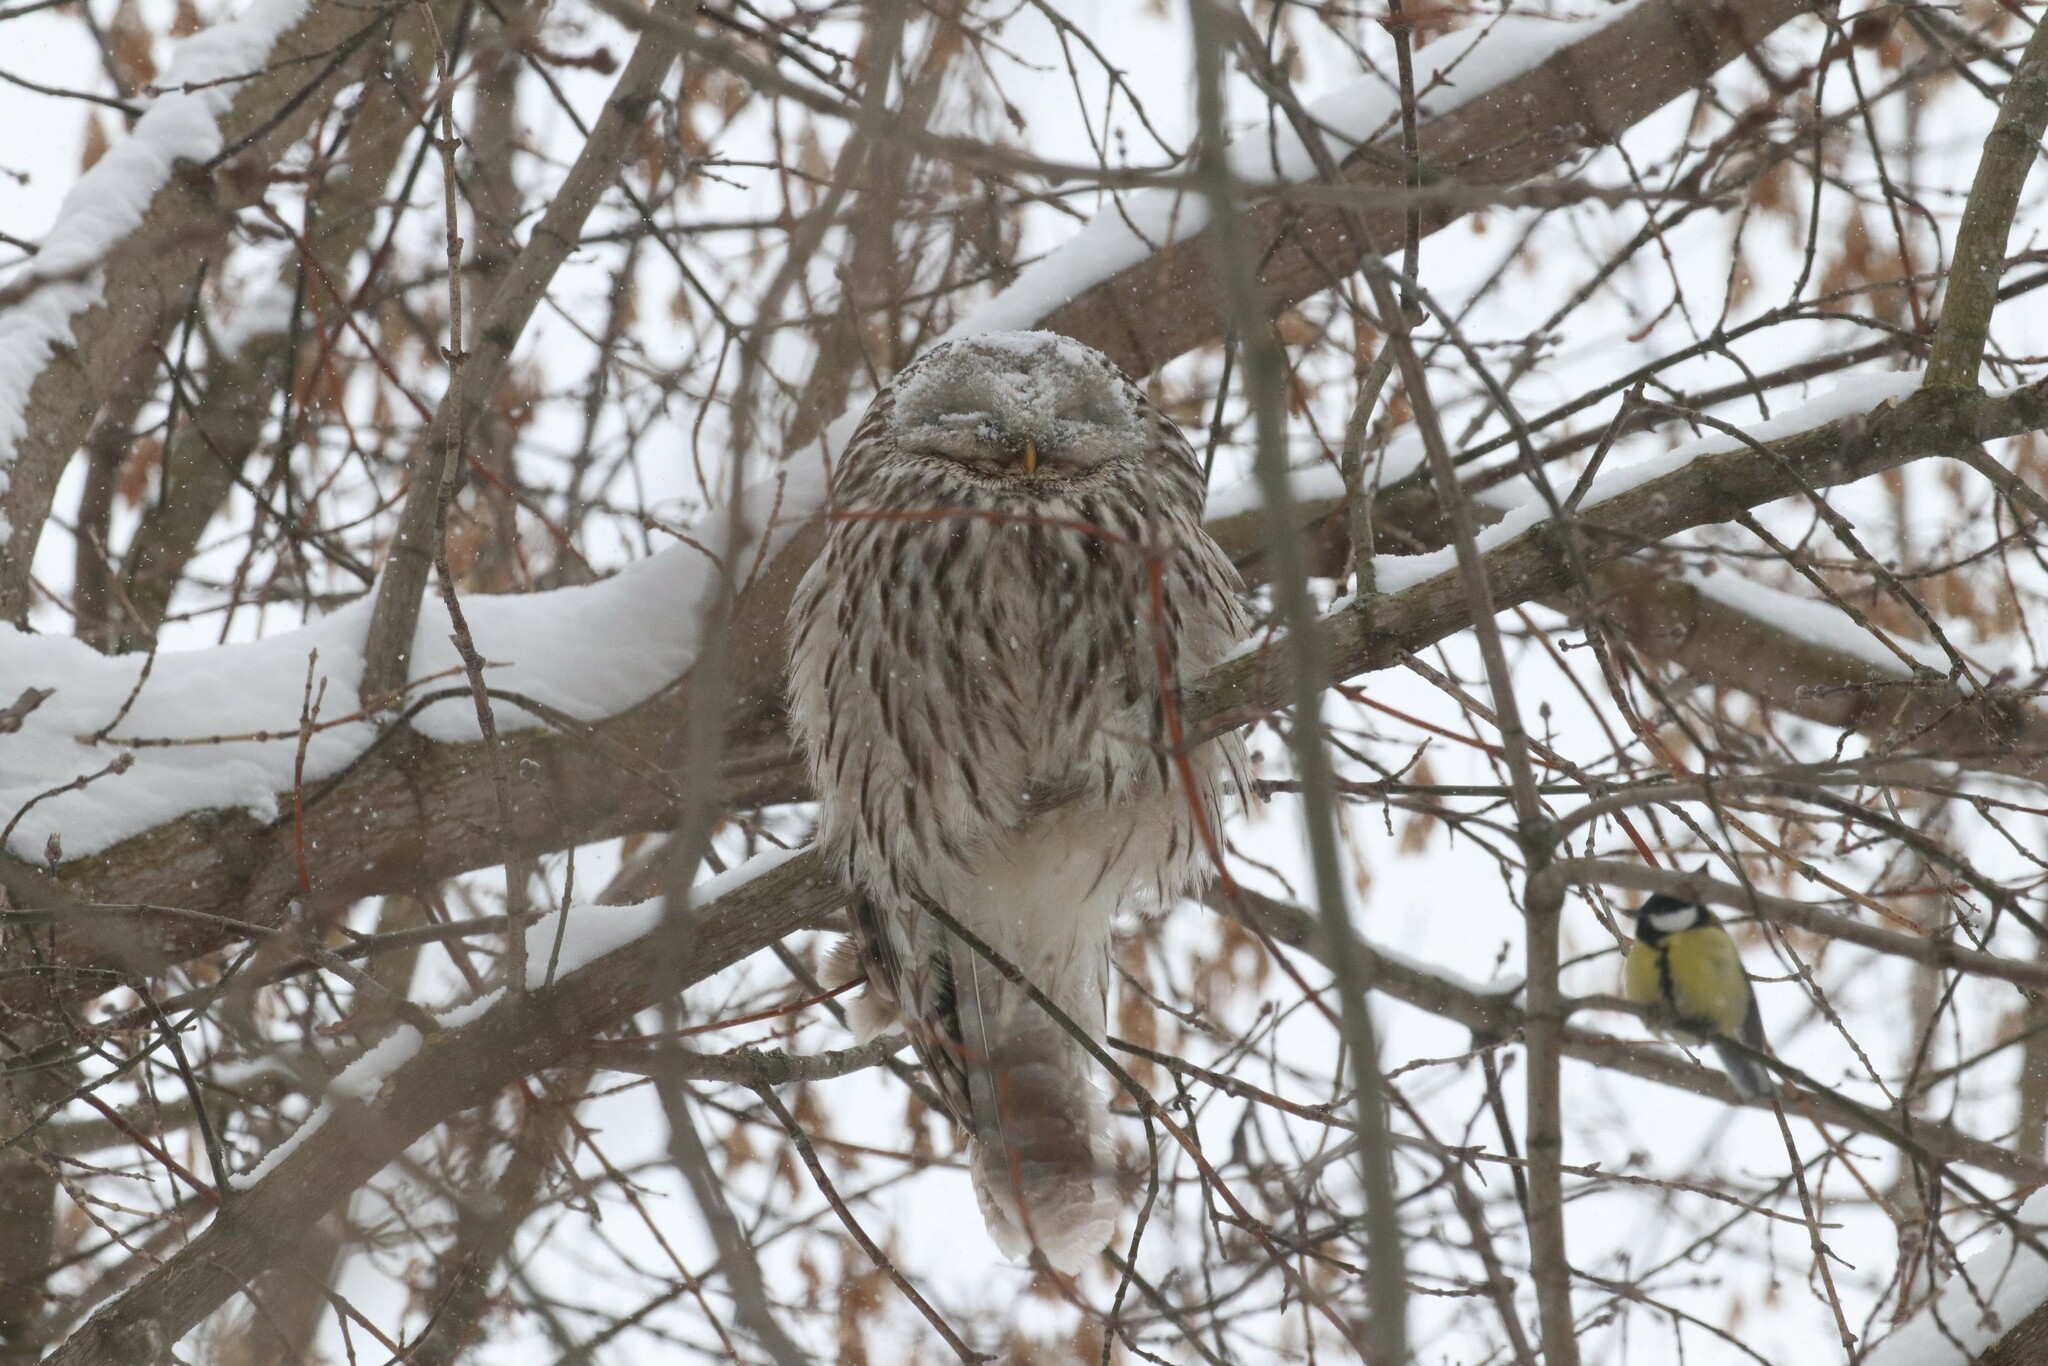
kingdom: Animalia
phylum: Chordata
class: Aves
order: Strigiformes
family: Strigidae
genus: Strix
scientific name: Strix uralensis
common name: Ural owl
